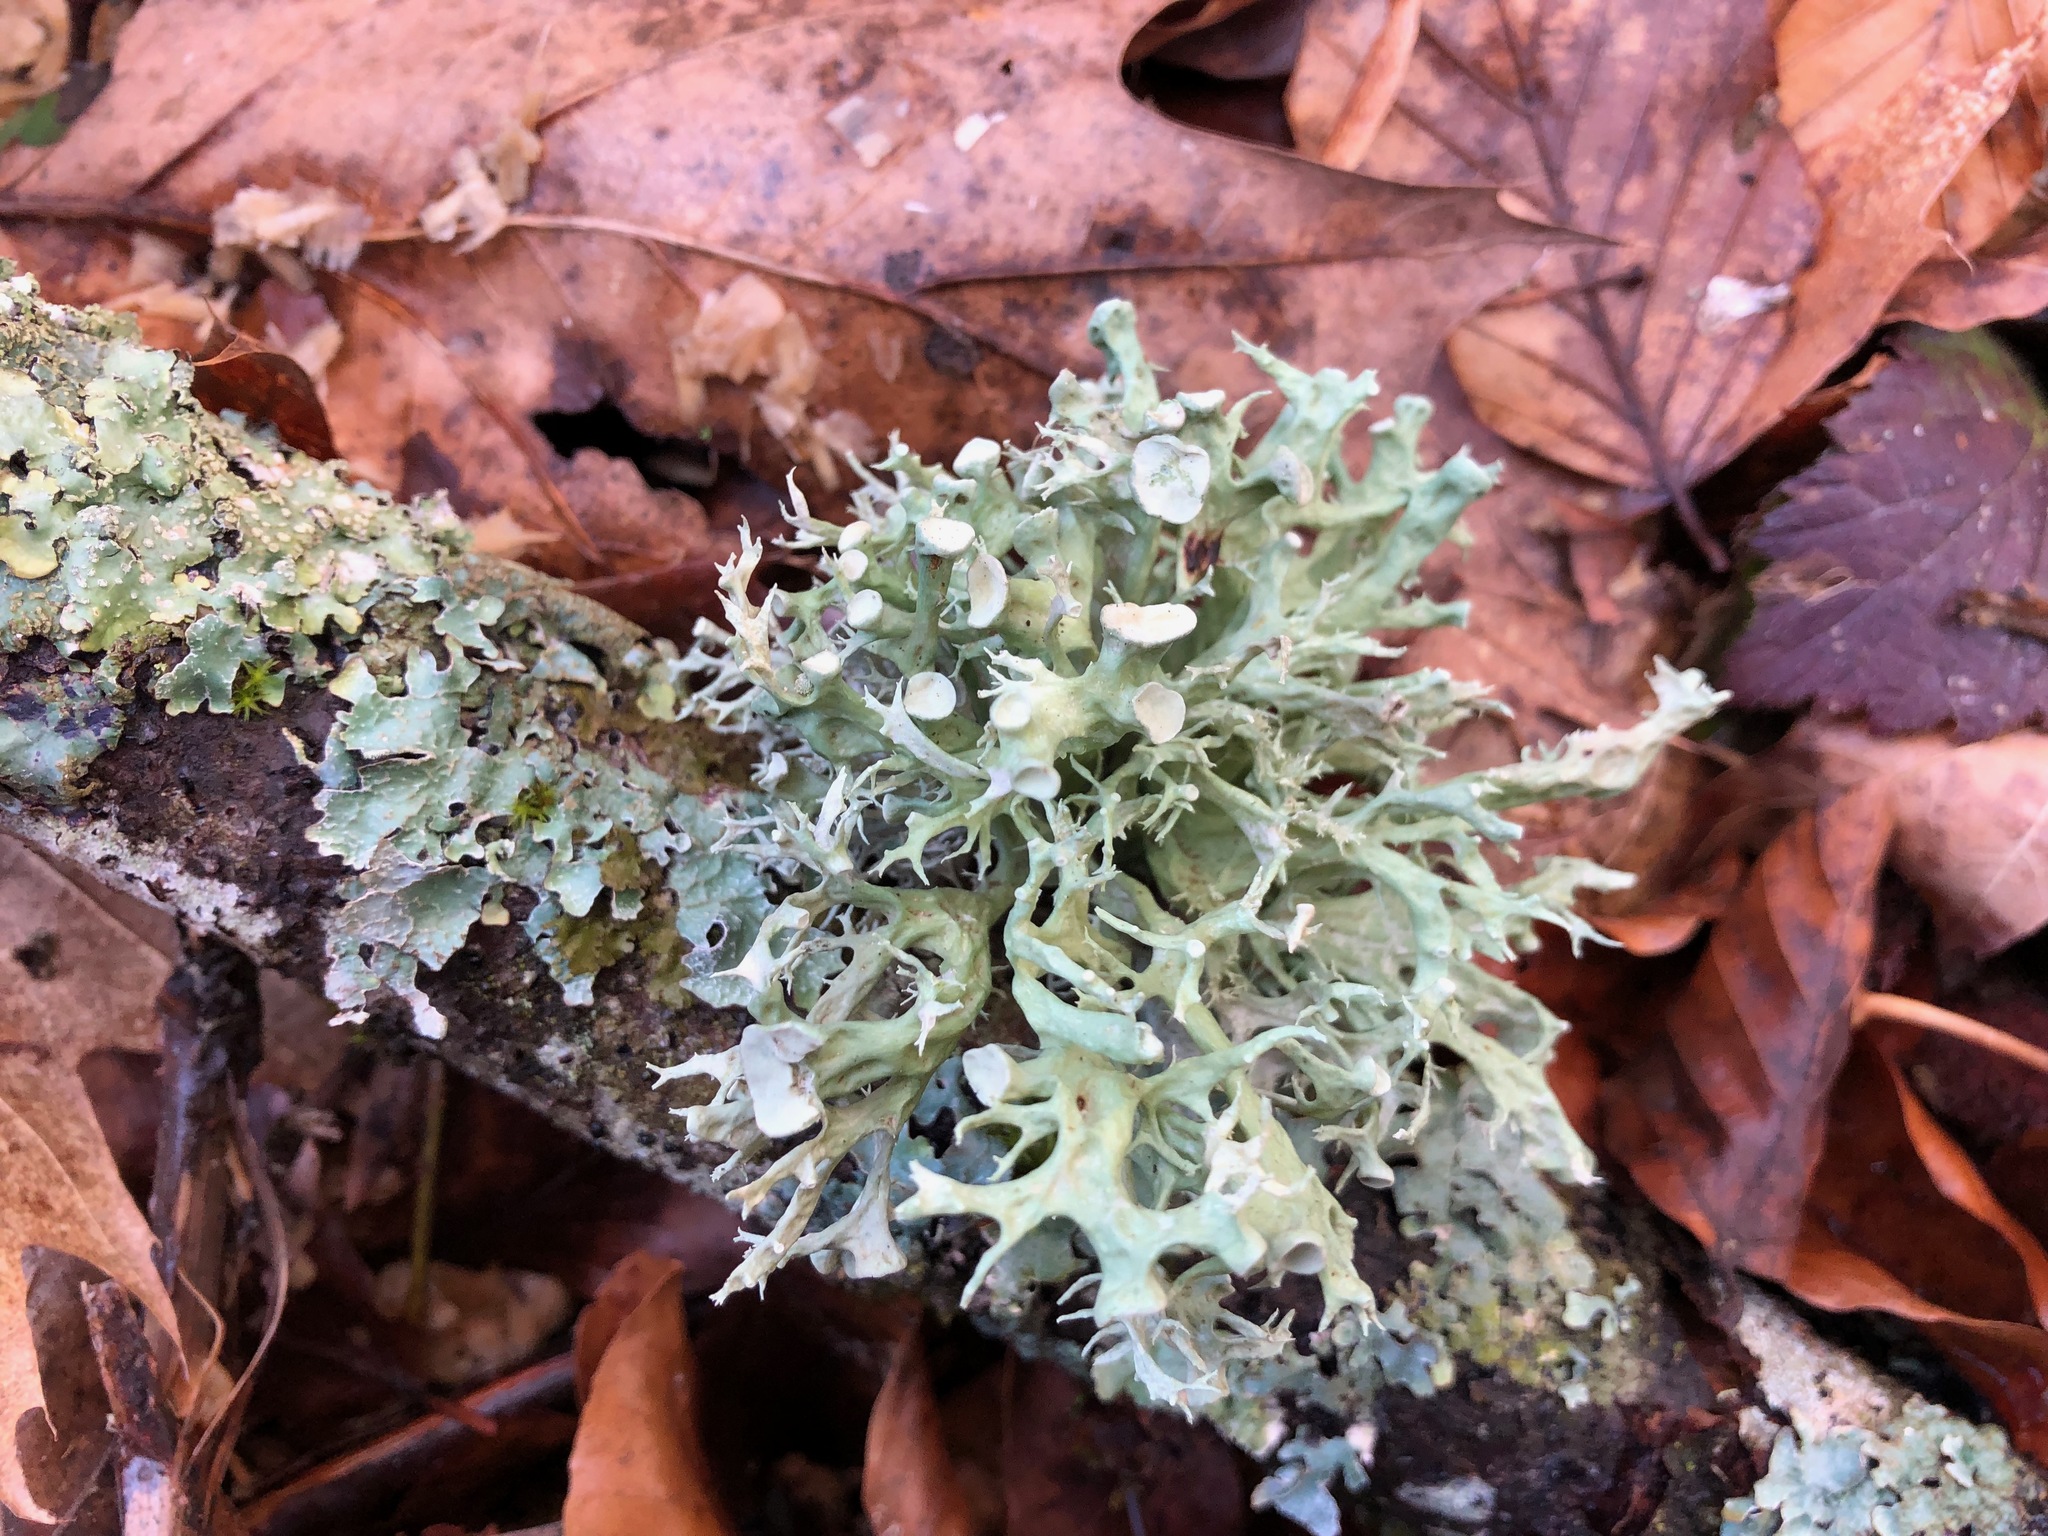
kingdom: Fungi
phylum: Ascomycota
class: Lecanoromycetes
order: Lecanorales
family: Ramalinaceae
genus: Ramalina
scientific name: Ramalina fastigiata
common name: Dotted ribbon lichen
